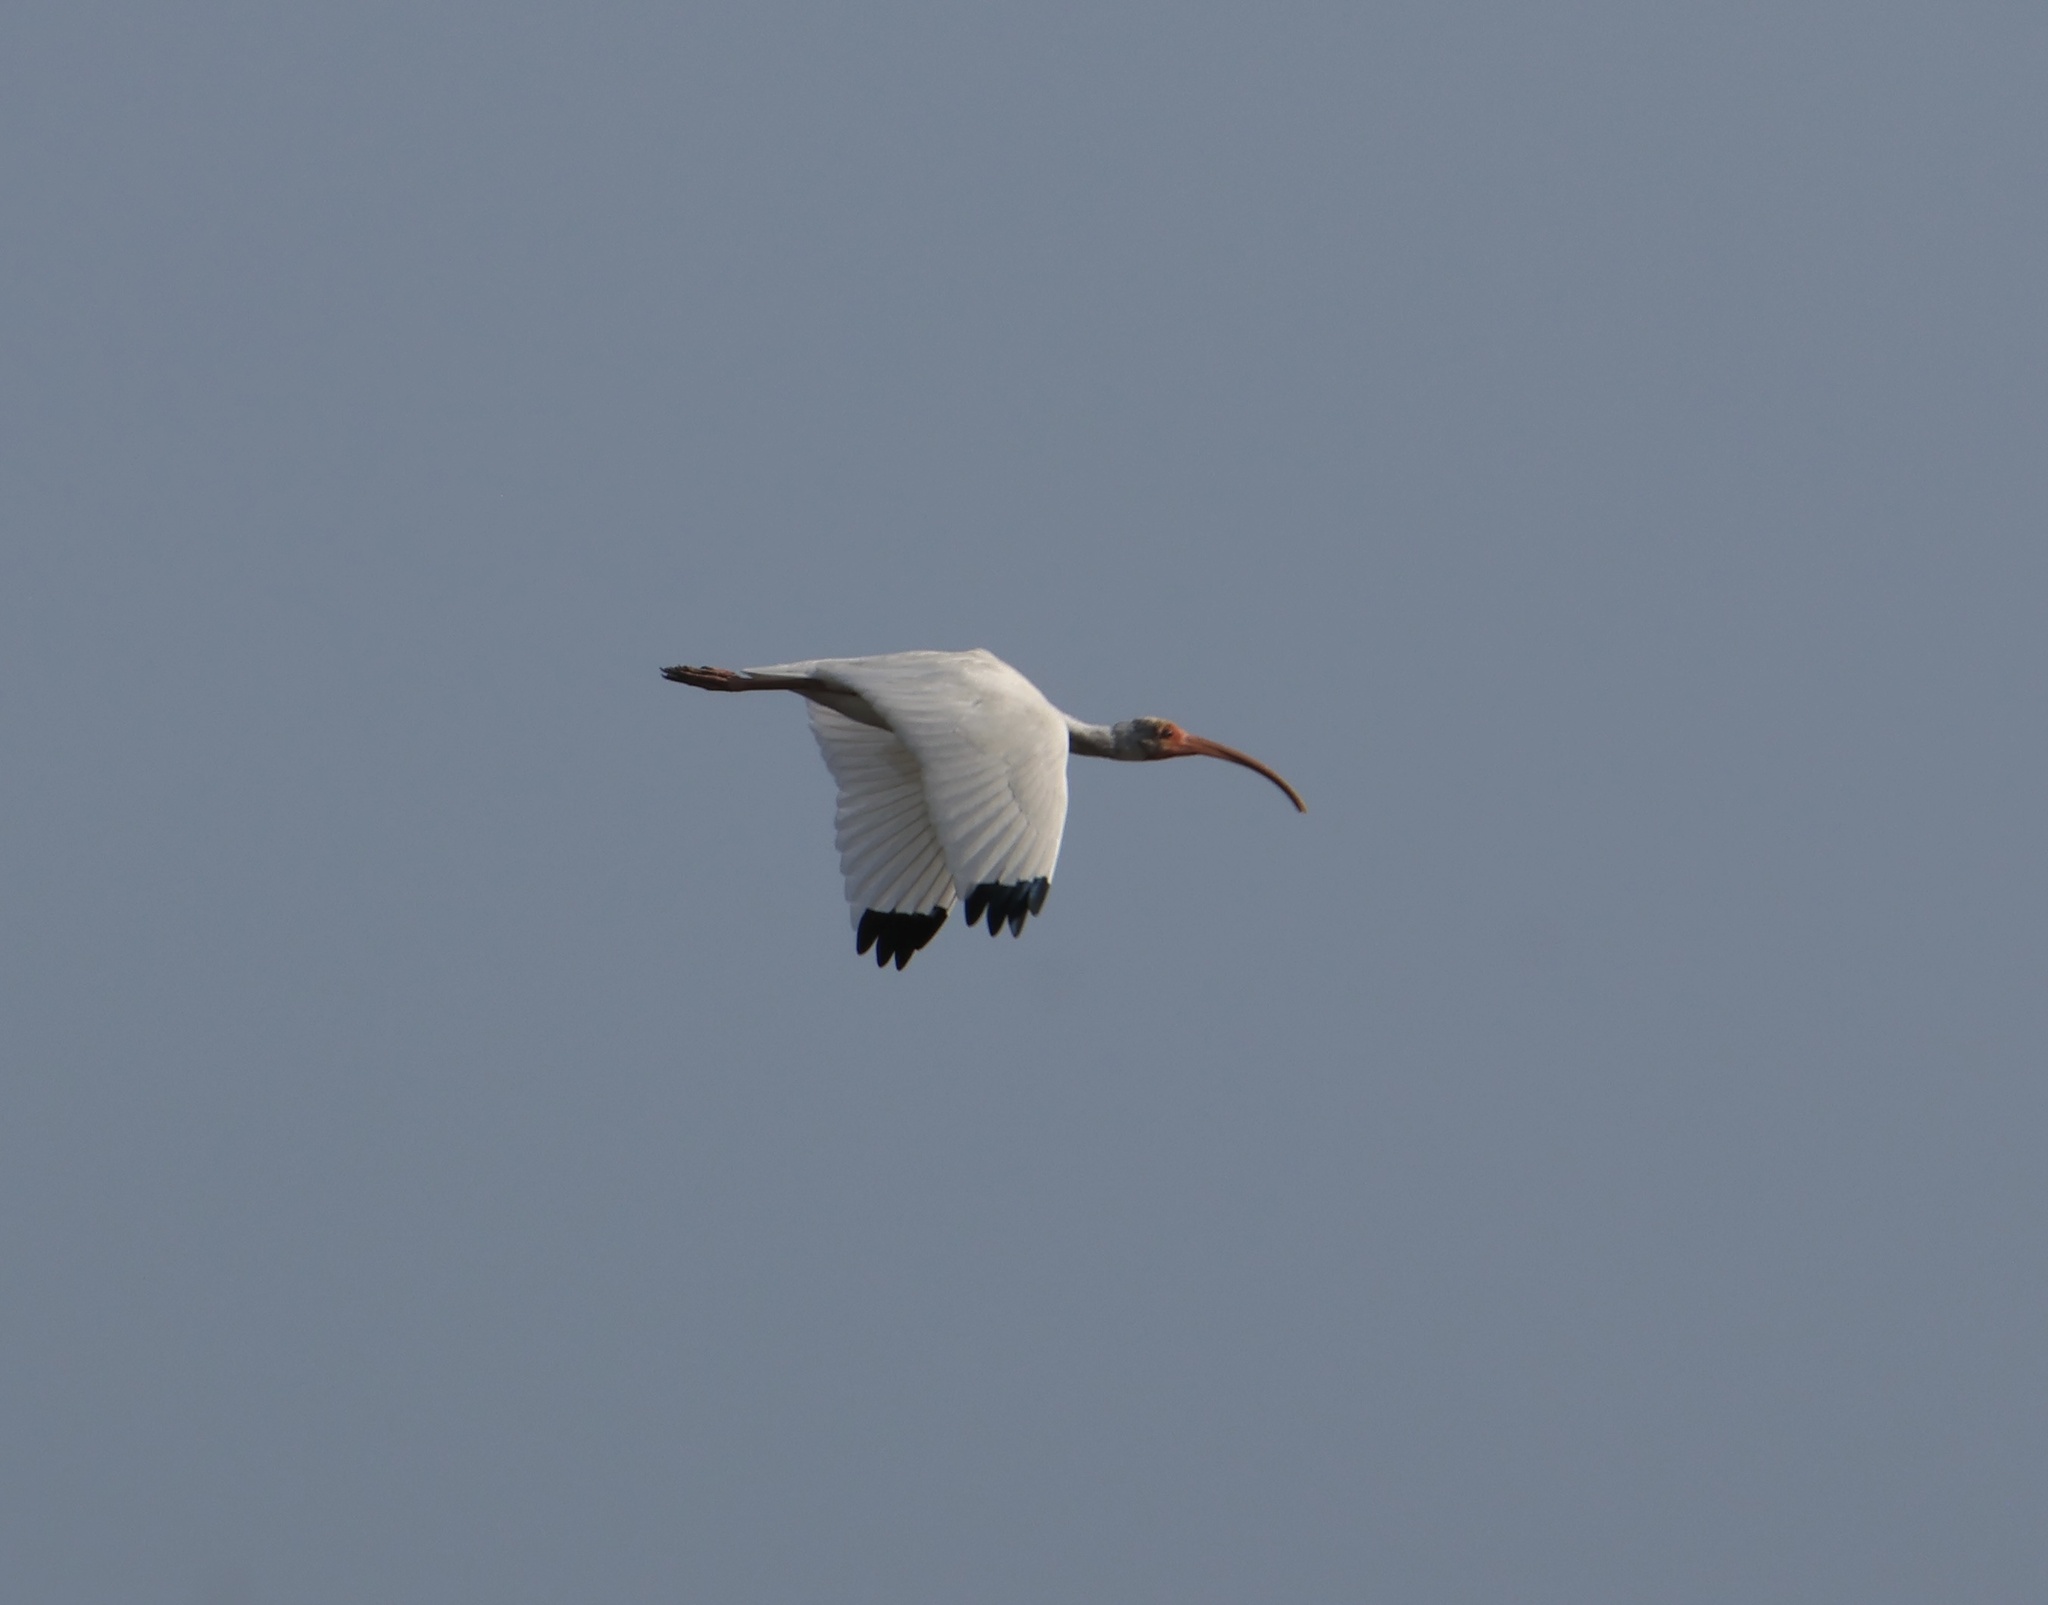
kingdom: Animalia
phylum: Chordata
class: Aves
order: Pelecaniformes
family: Threskiornithidae
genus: Eudocimus
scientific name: Eudocimus albus
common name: White ibis
